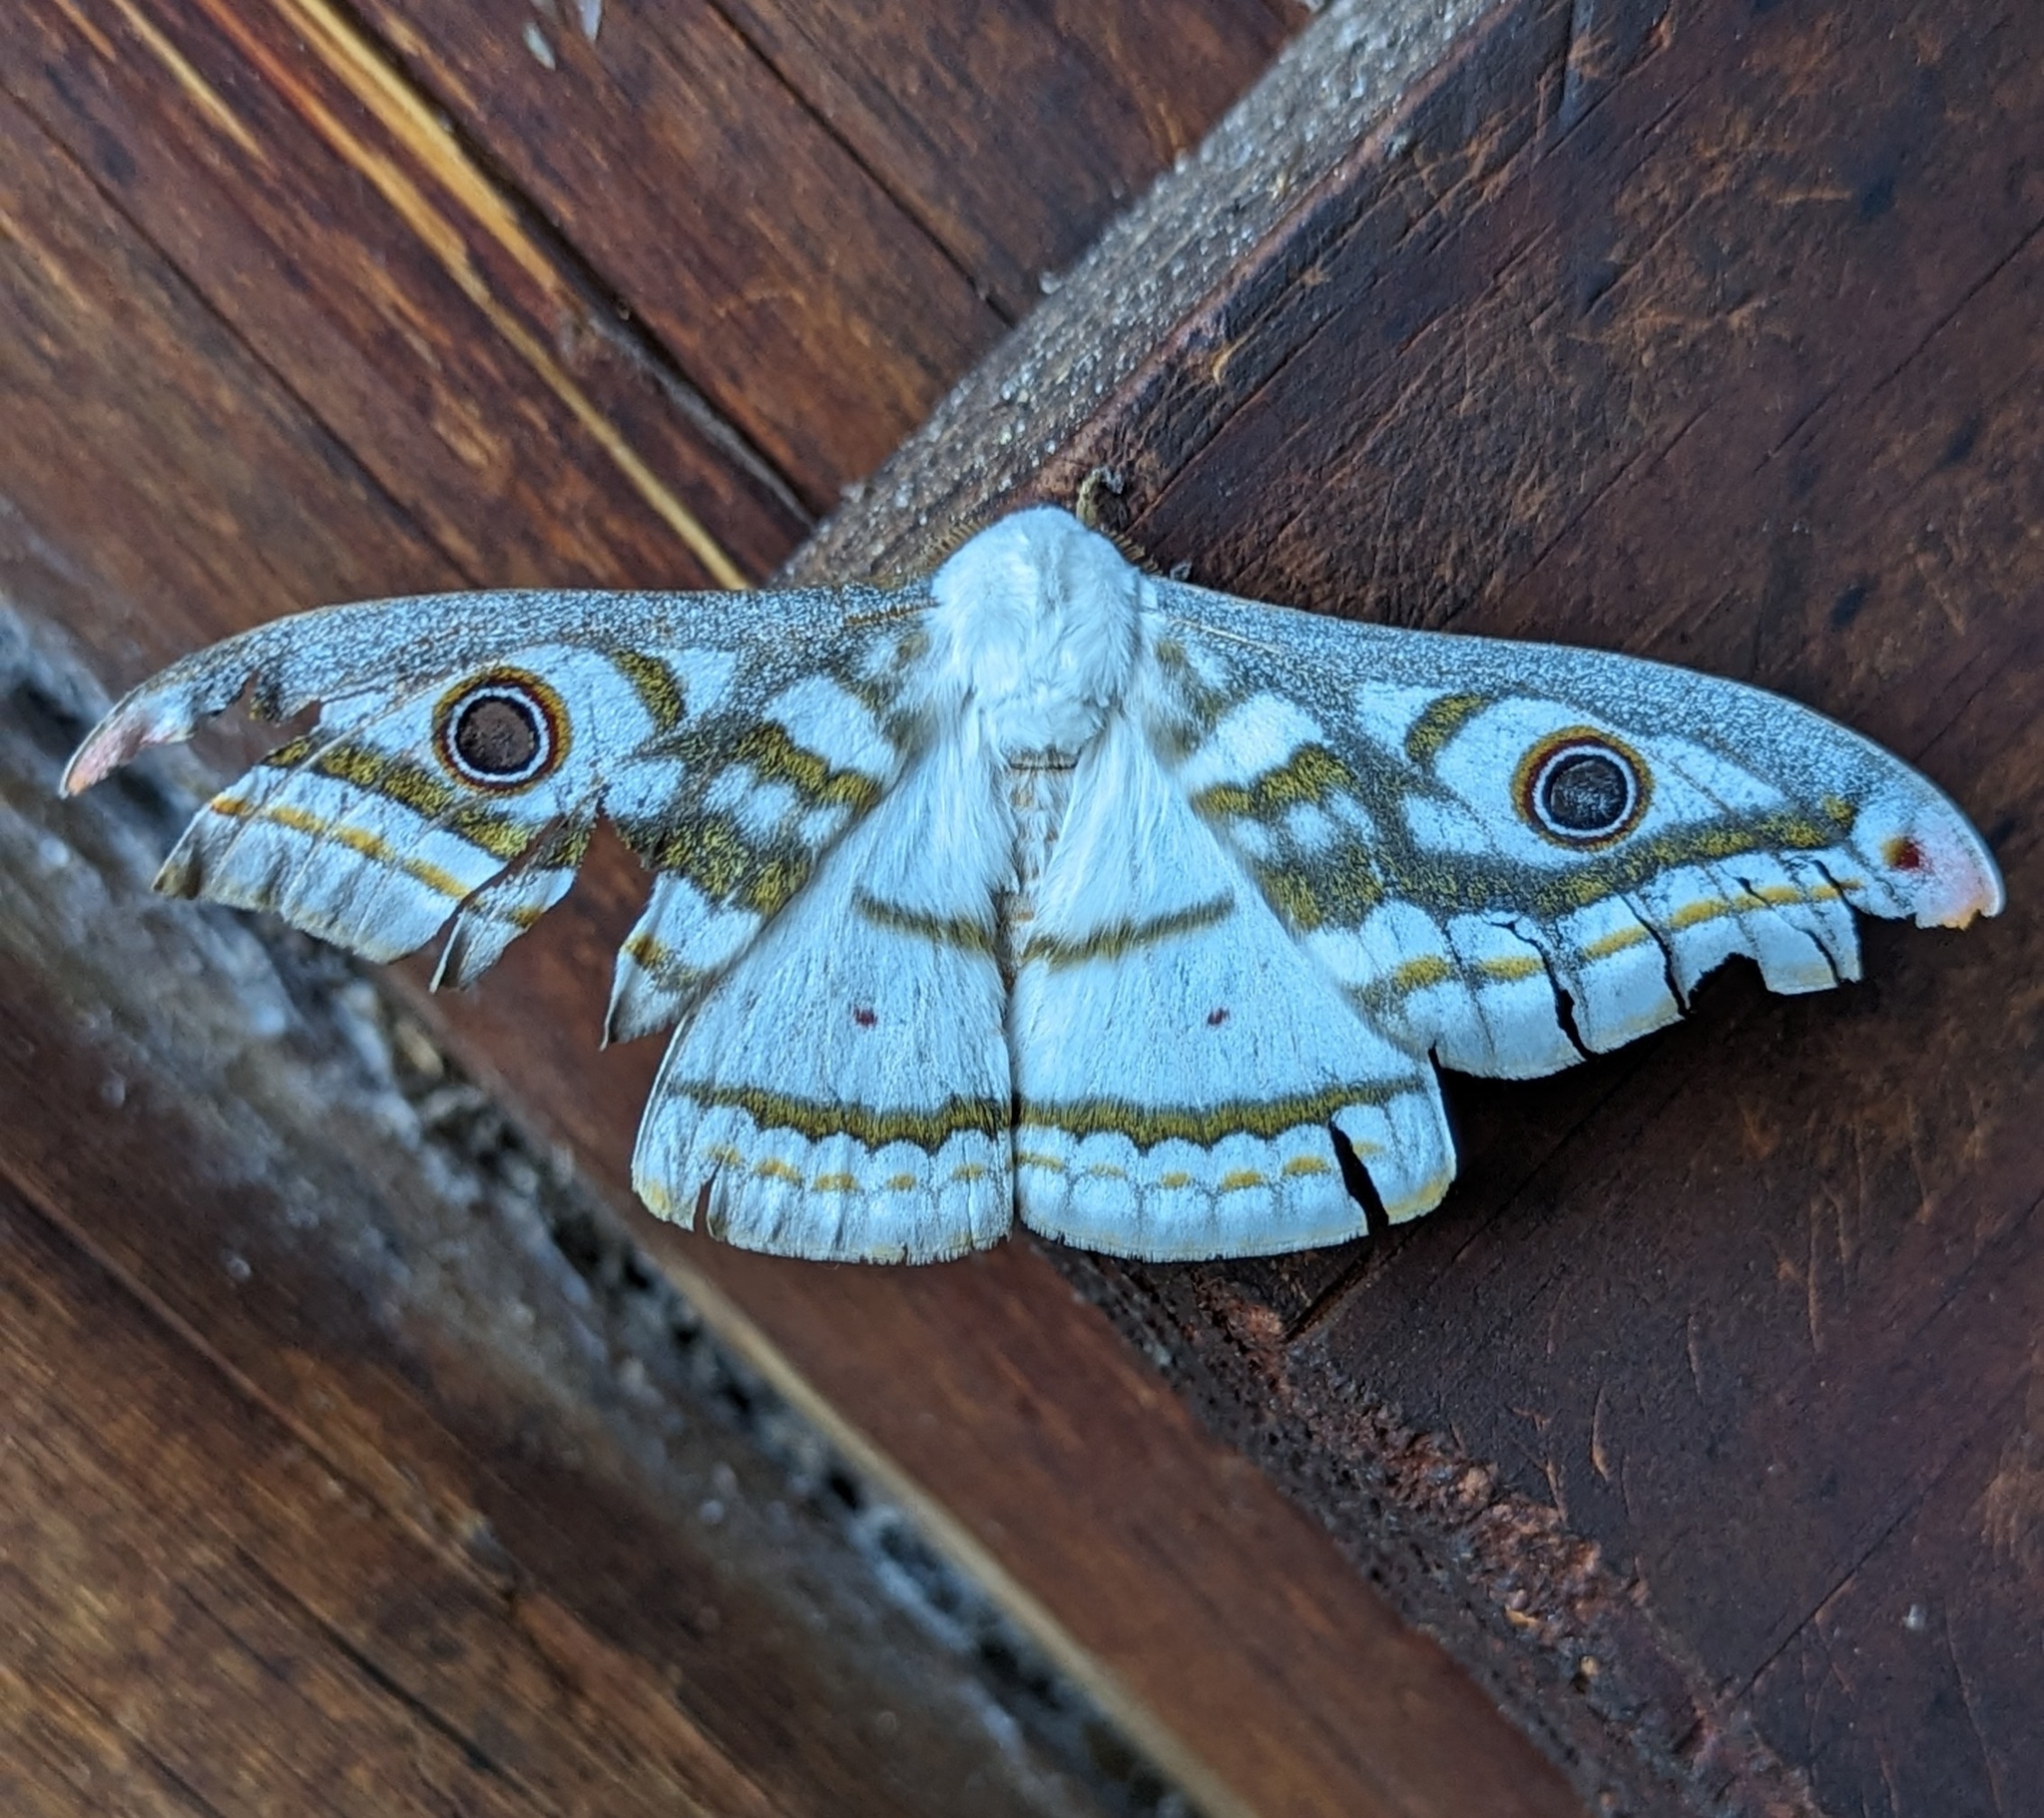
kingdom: Animalia
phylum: Arthropoda
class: Insecta
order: Lepidoptera
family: Saturniidae
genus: Heniocha
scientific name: Heniocha marnois
